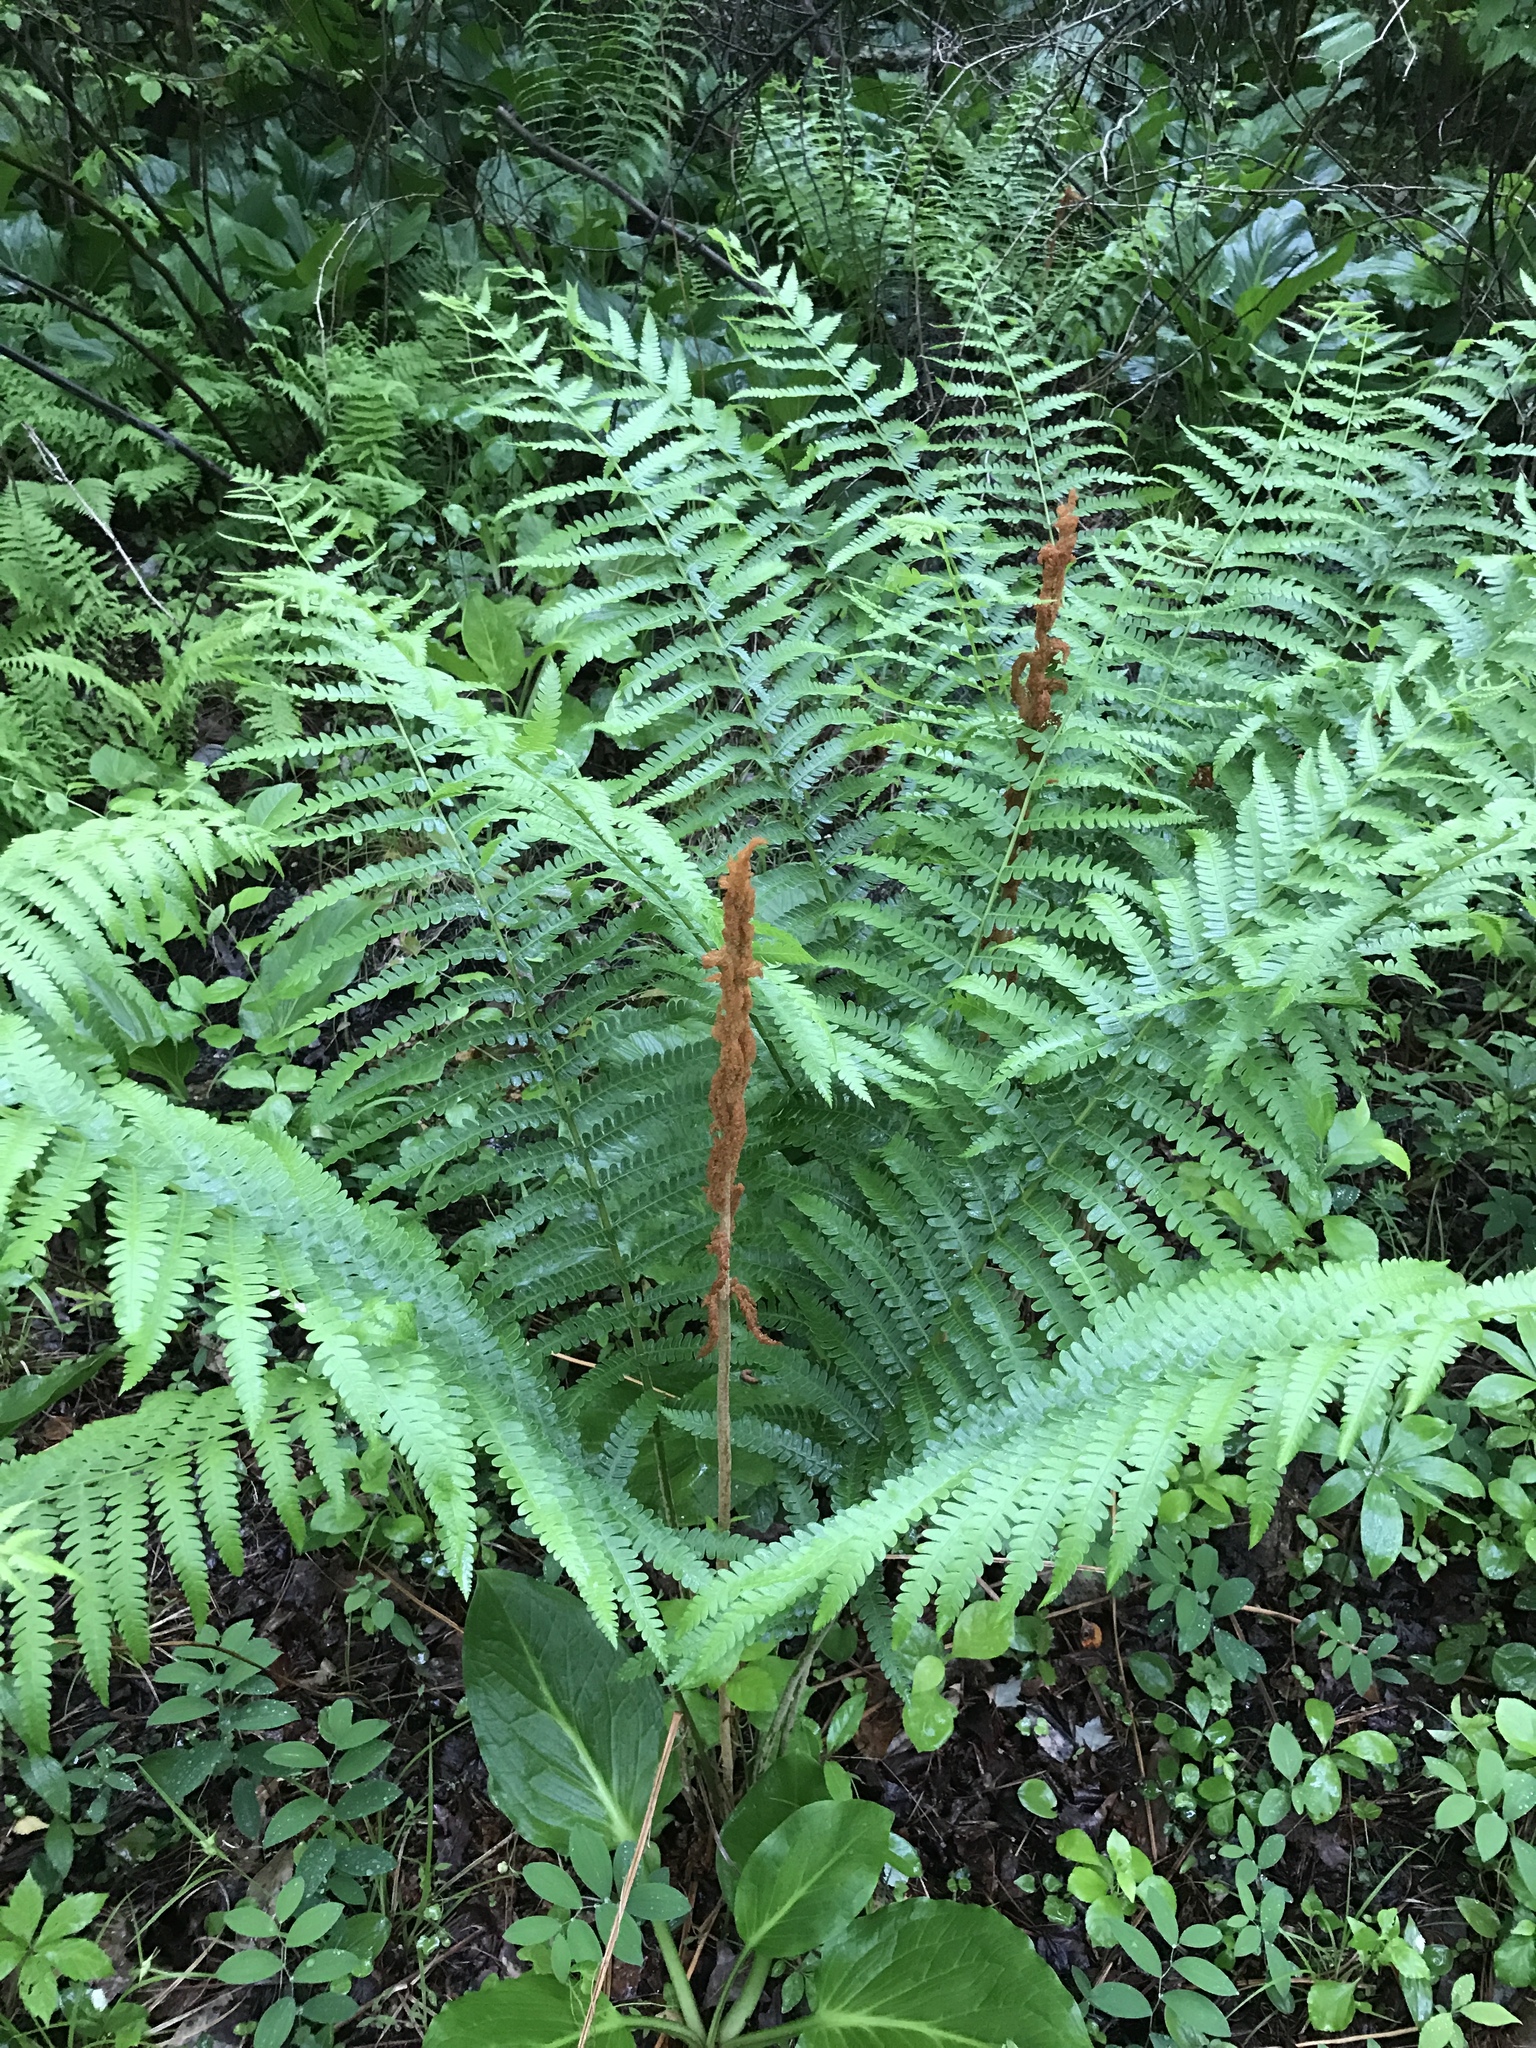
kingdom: Plantae
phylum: Tracheophyta
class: Polypodiopsida
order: Osmundales
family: Osmundaceae
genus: Osmundastrum
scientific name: Osmundastrum cinnamomeum
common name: Cinnamon fern
